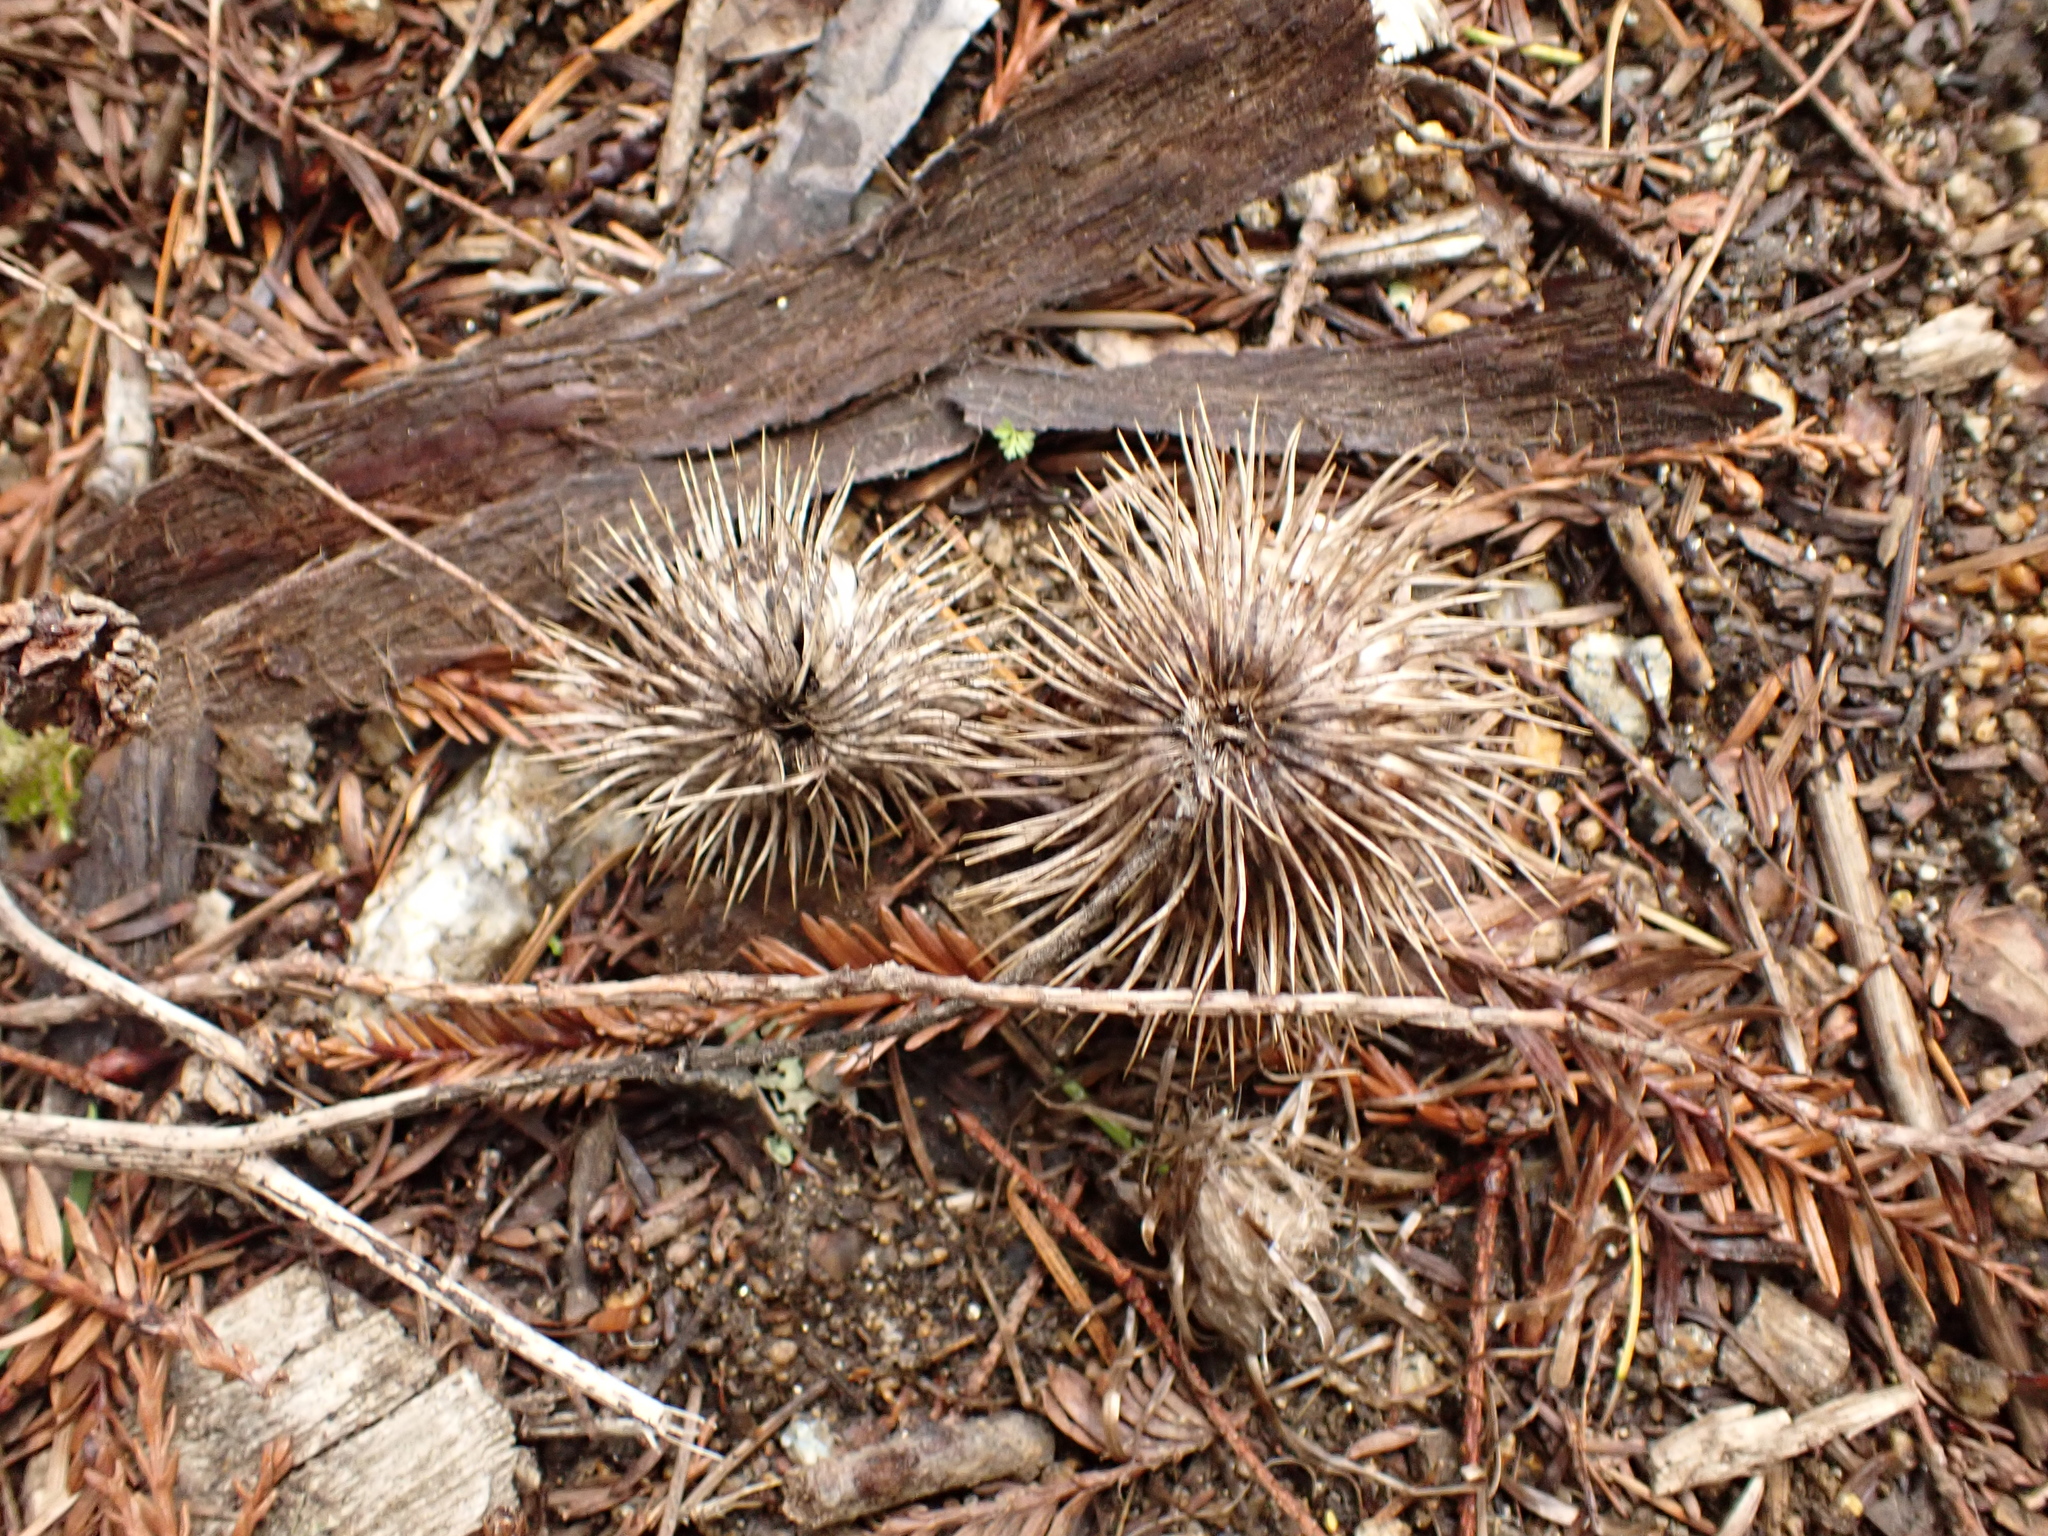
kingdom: Plantae
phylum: Tracheophyta
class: Magnoliopsida
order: Fagales
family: Fagaceae
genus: Chrysolepis
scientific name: Chrysolepis chrysophylla
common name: Giant chinquapin
